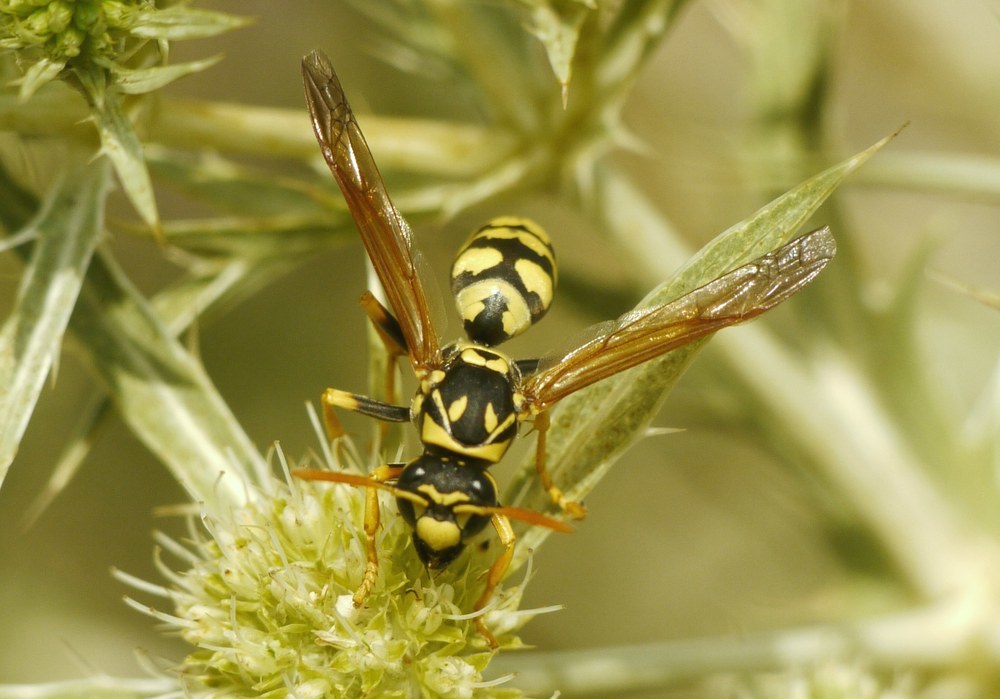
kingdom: Animalia
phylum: Arthropoda
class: Insecta
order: Hymenoptera
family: Eumenidae
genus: Polistes
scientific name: Polistes dominula
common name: Paper wasp
